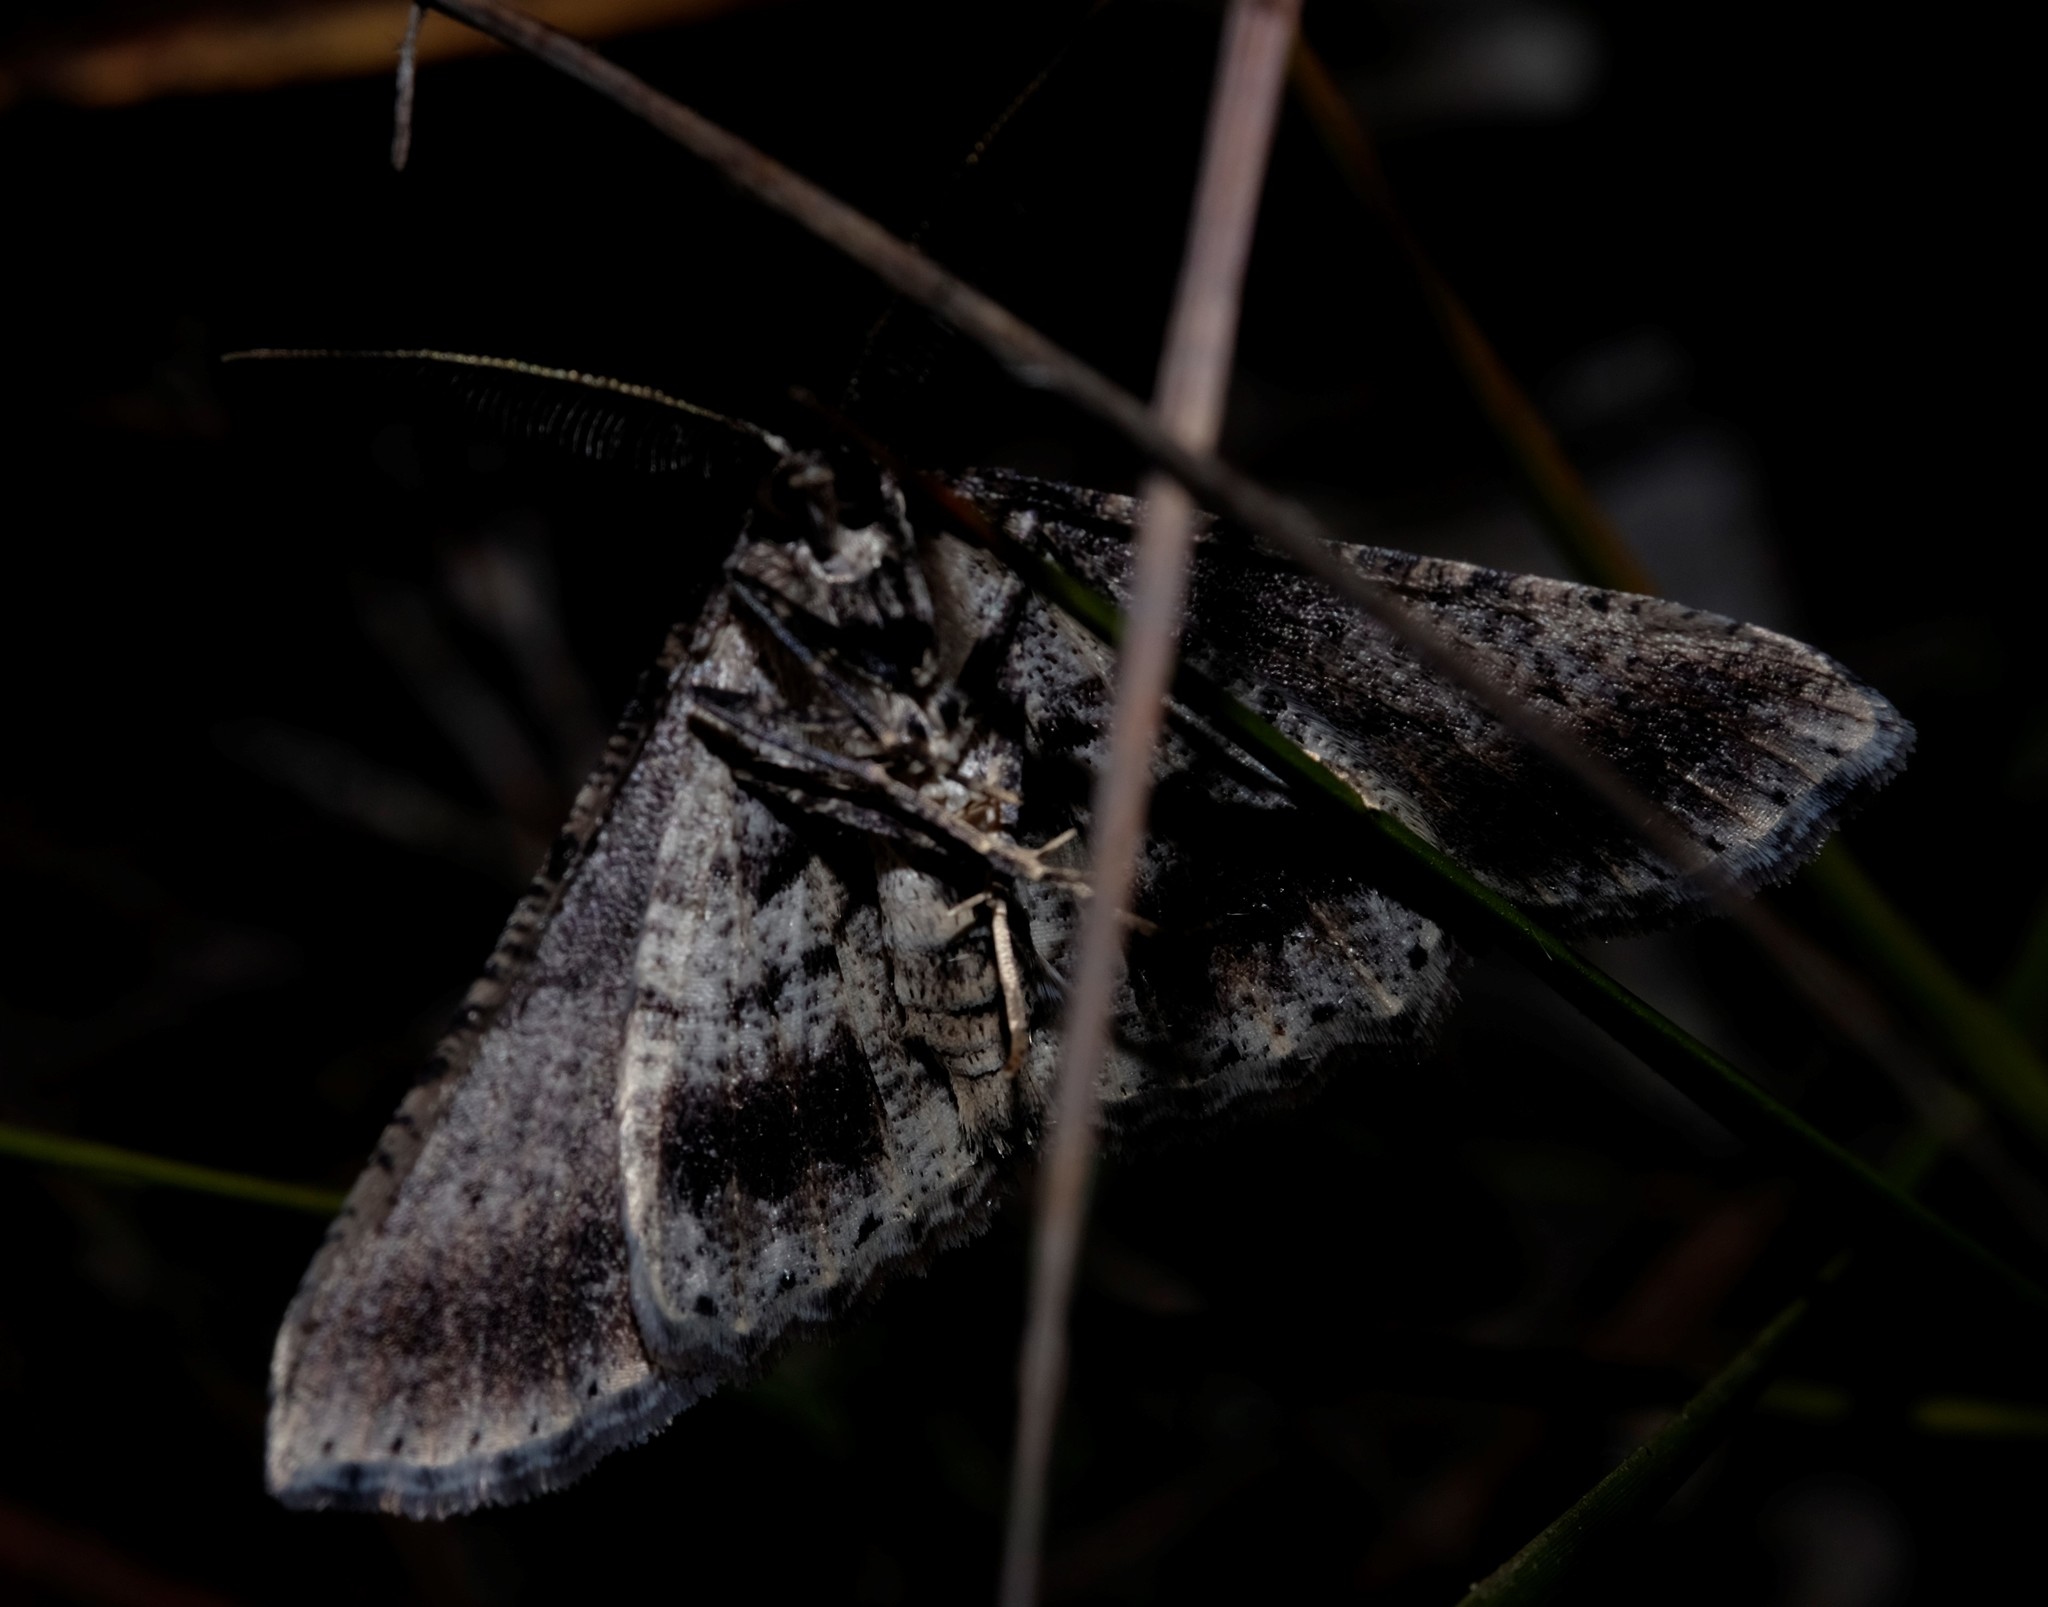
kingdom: Animalia
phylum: Arthropoda
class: Insecta
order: Lepidoptera
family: Geometridae
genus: Syneora
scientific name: Syneora mundifera
